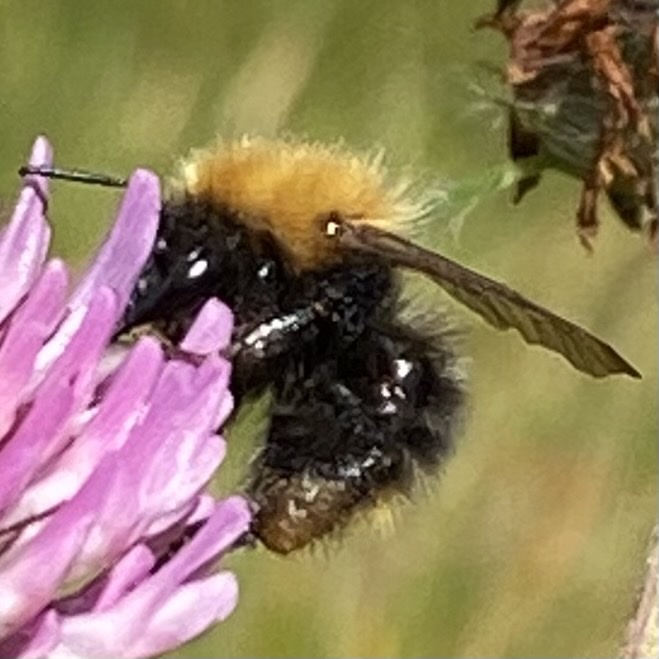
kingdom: Animalia
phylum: Arthropoda
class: Insecta
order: Hymenoptera
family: Apidae
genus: Bombus
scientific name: Bombus pascuorum
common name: Common carder bee
